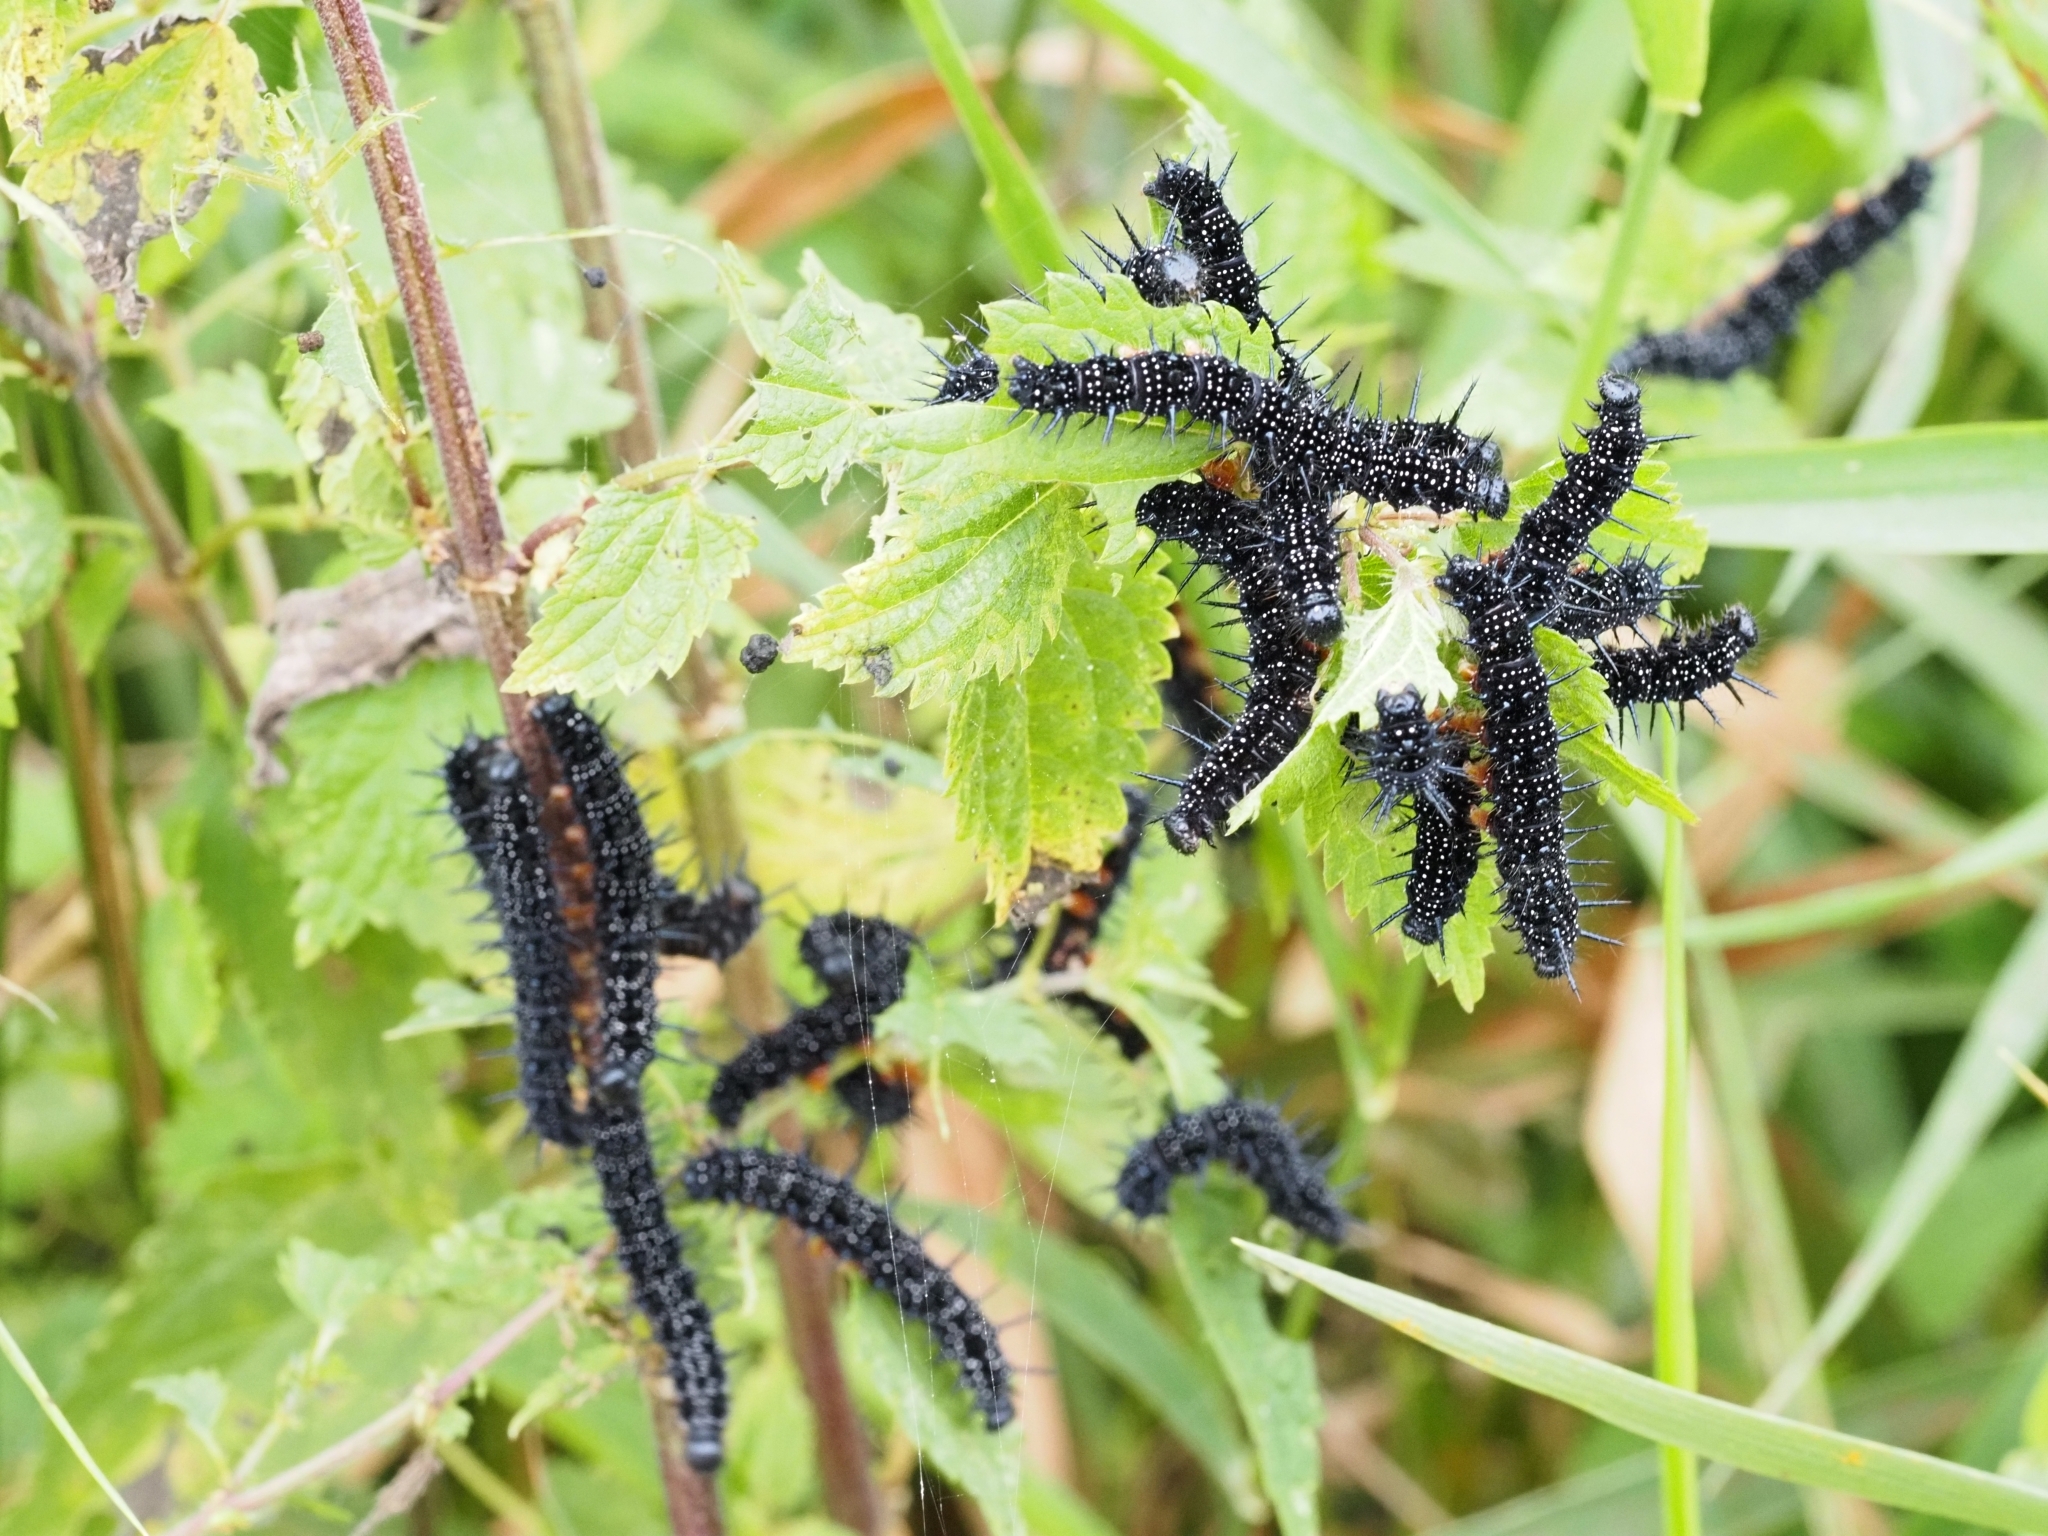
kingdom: Animalia
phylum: Arthropoda
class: Insecta
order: Lepidoptera
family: Nymphalidae
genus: Aglais
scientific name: Aglais io
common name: Peacock
